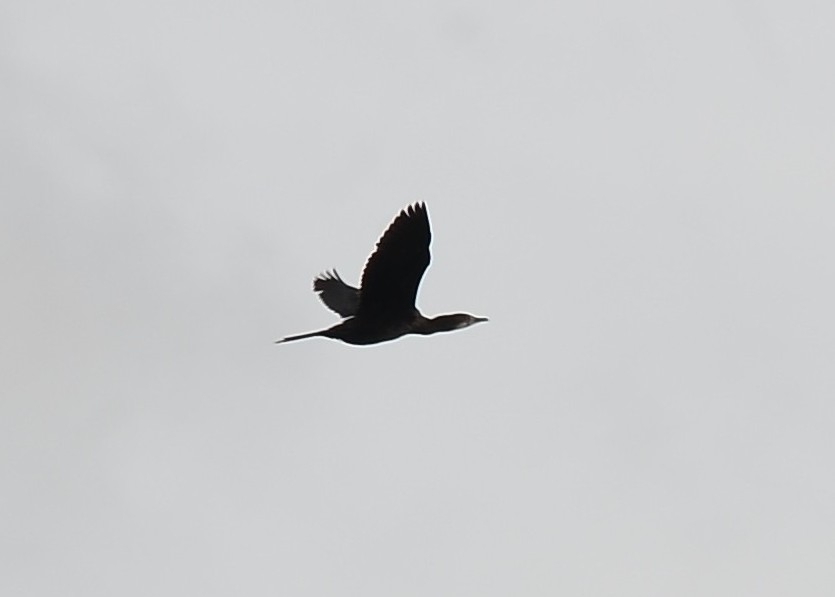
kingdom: Animalia
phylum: Chordata
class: Aves
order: Suliformes
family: Phalacrocoracidae
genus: Microcarbo
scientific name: Microcarbo niger
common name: Little cormorant
